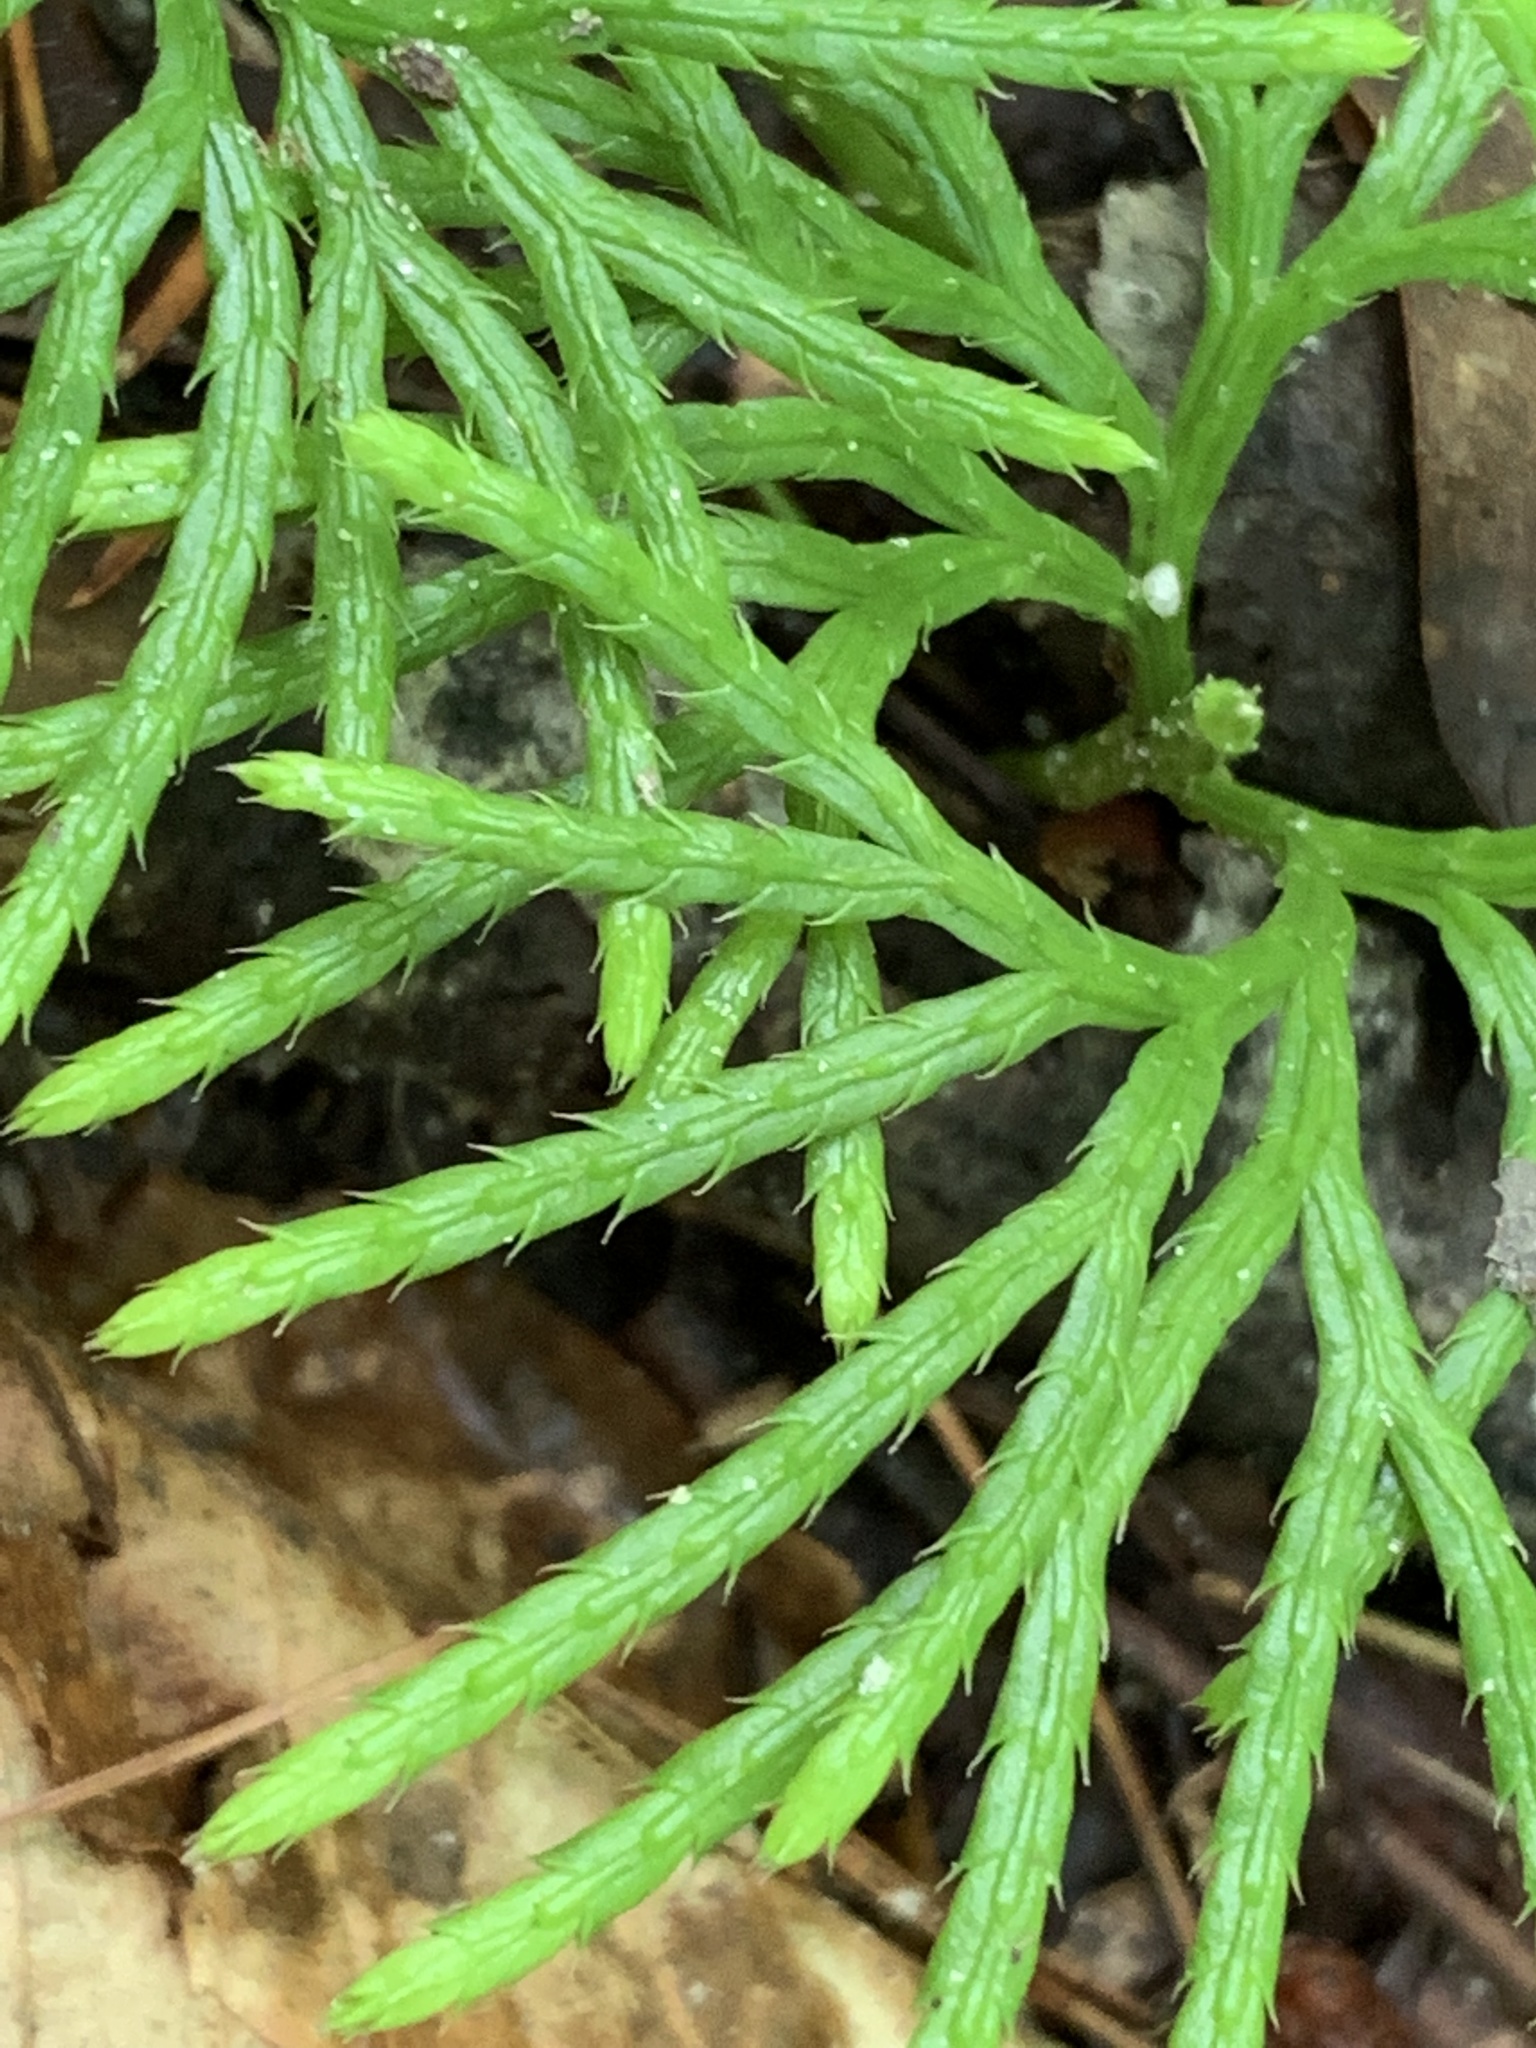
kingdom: Plantae
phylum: Tracheophyta
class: Lycopodiopsida
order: Lycopodiales
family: Lycopodiaceae
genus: Diphasiastrum
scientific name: Diphasiastrum digitatum
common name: Southern running-pine
